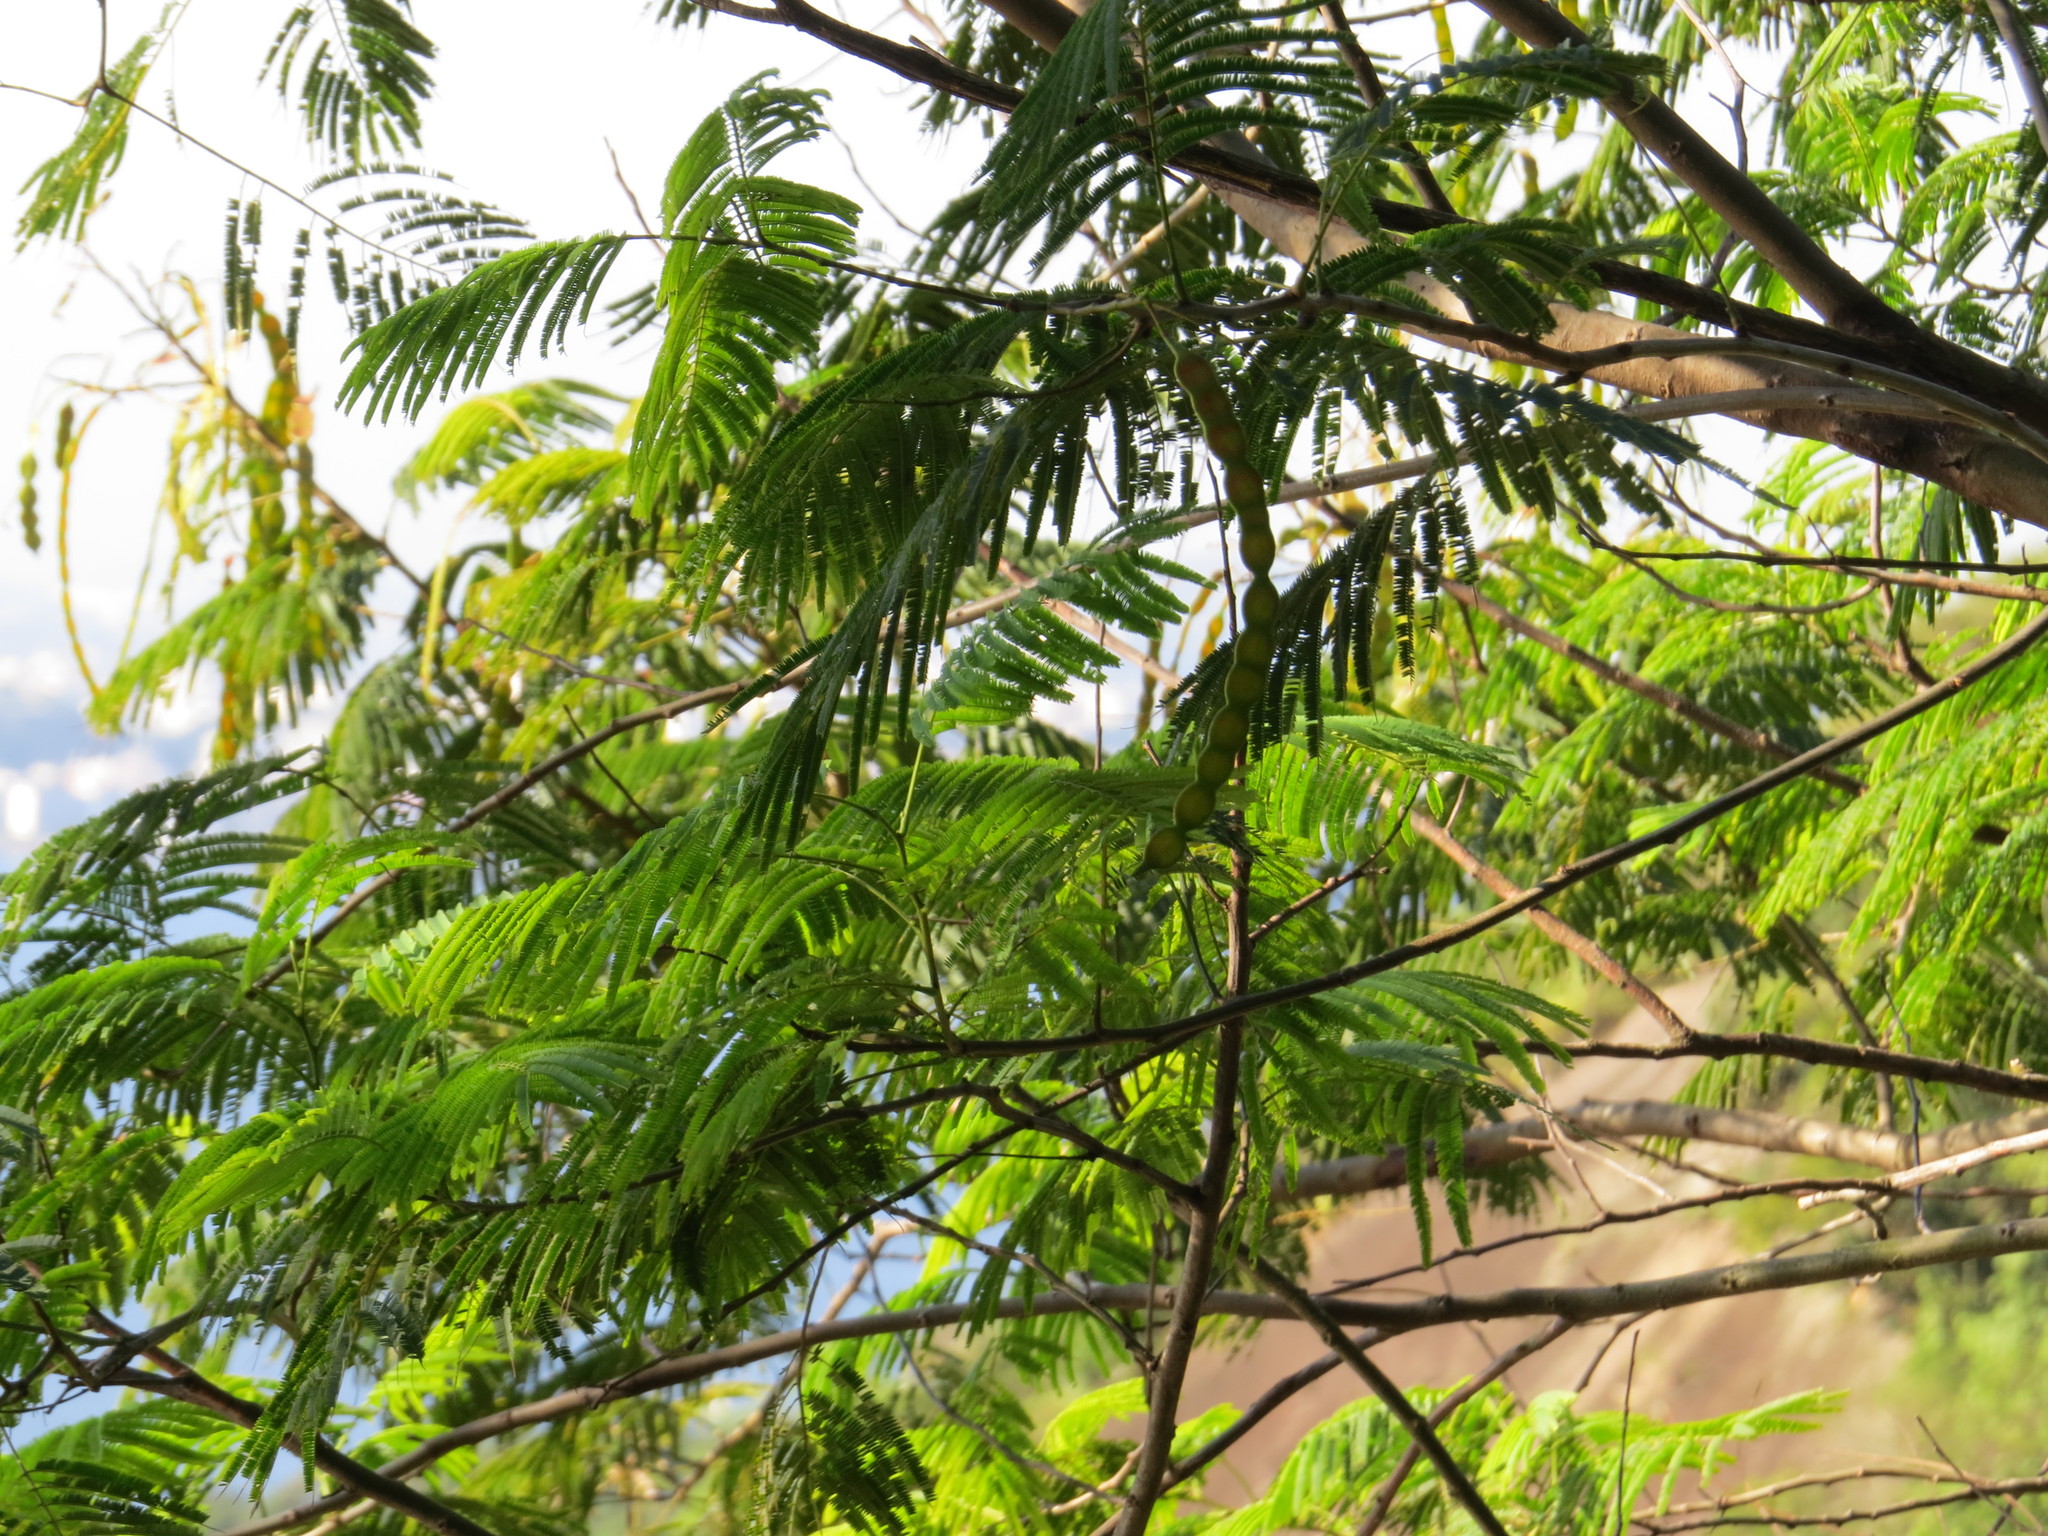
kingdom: Plantae
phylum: Tracheophyta
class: Magnoliopsida
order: Fabales
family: Fabaceae
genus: Anadenanthera
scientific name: Anadenanthera colubrina
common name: Curupay
